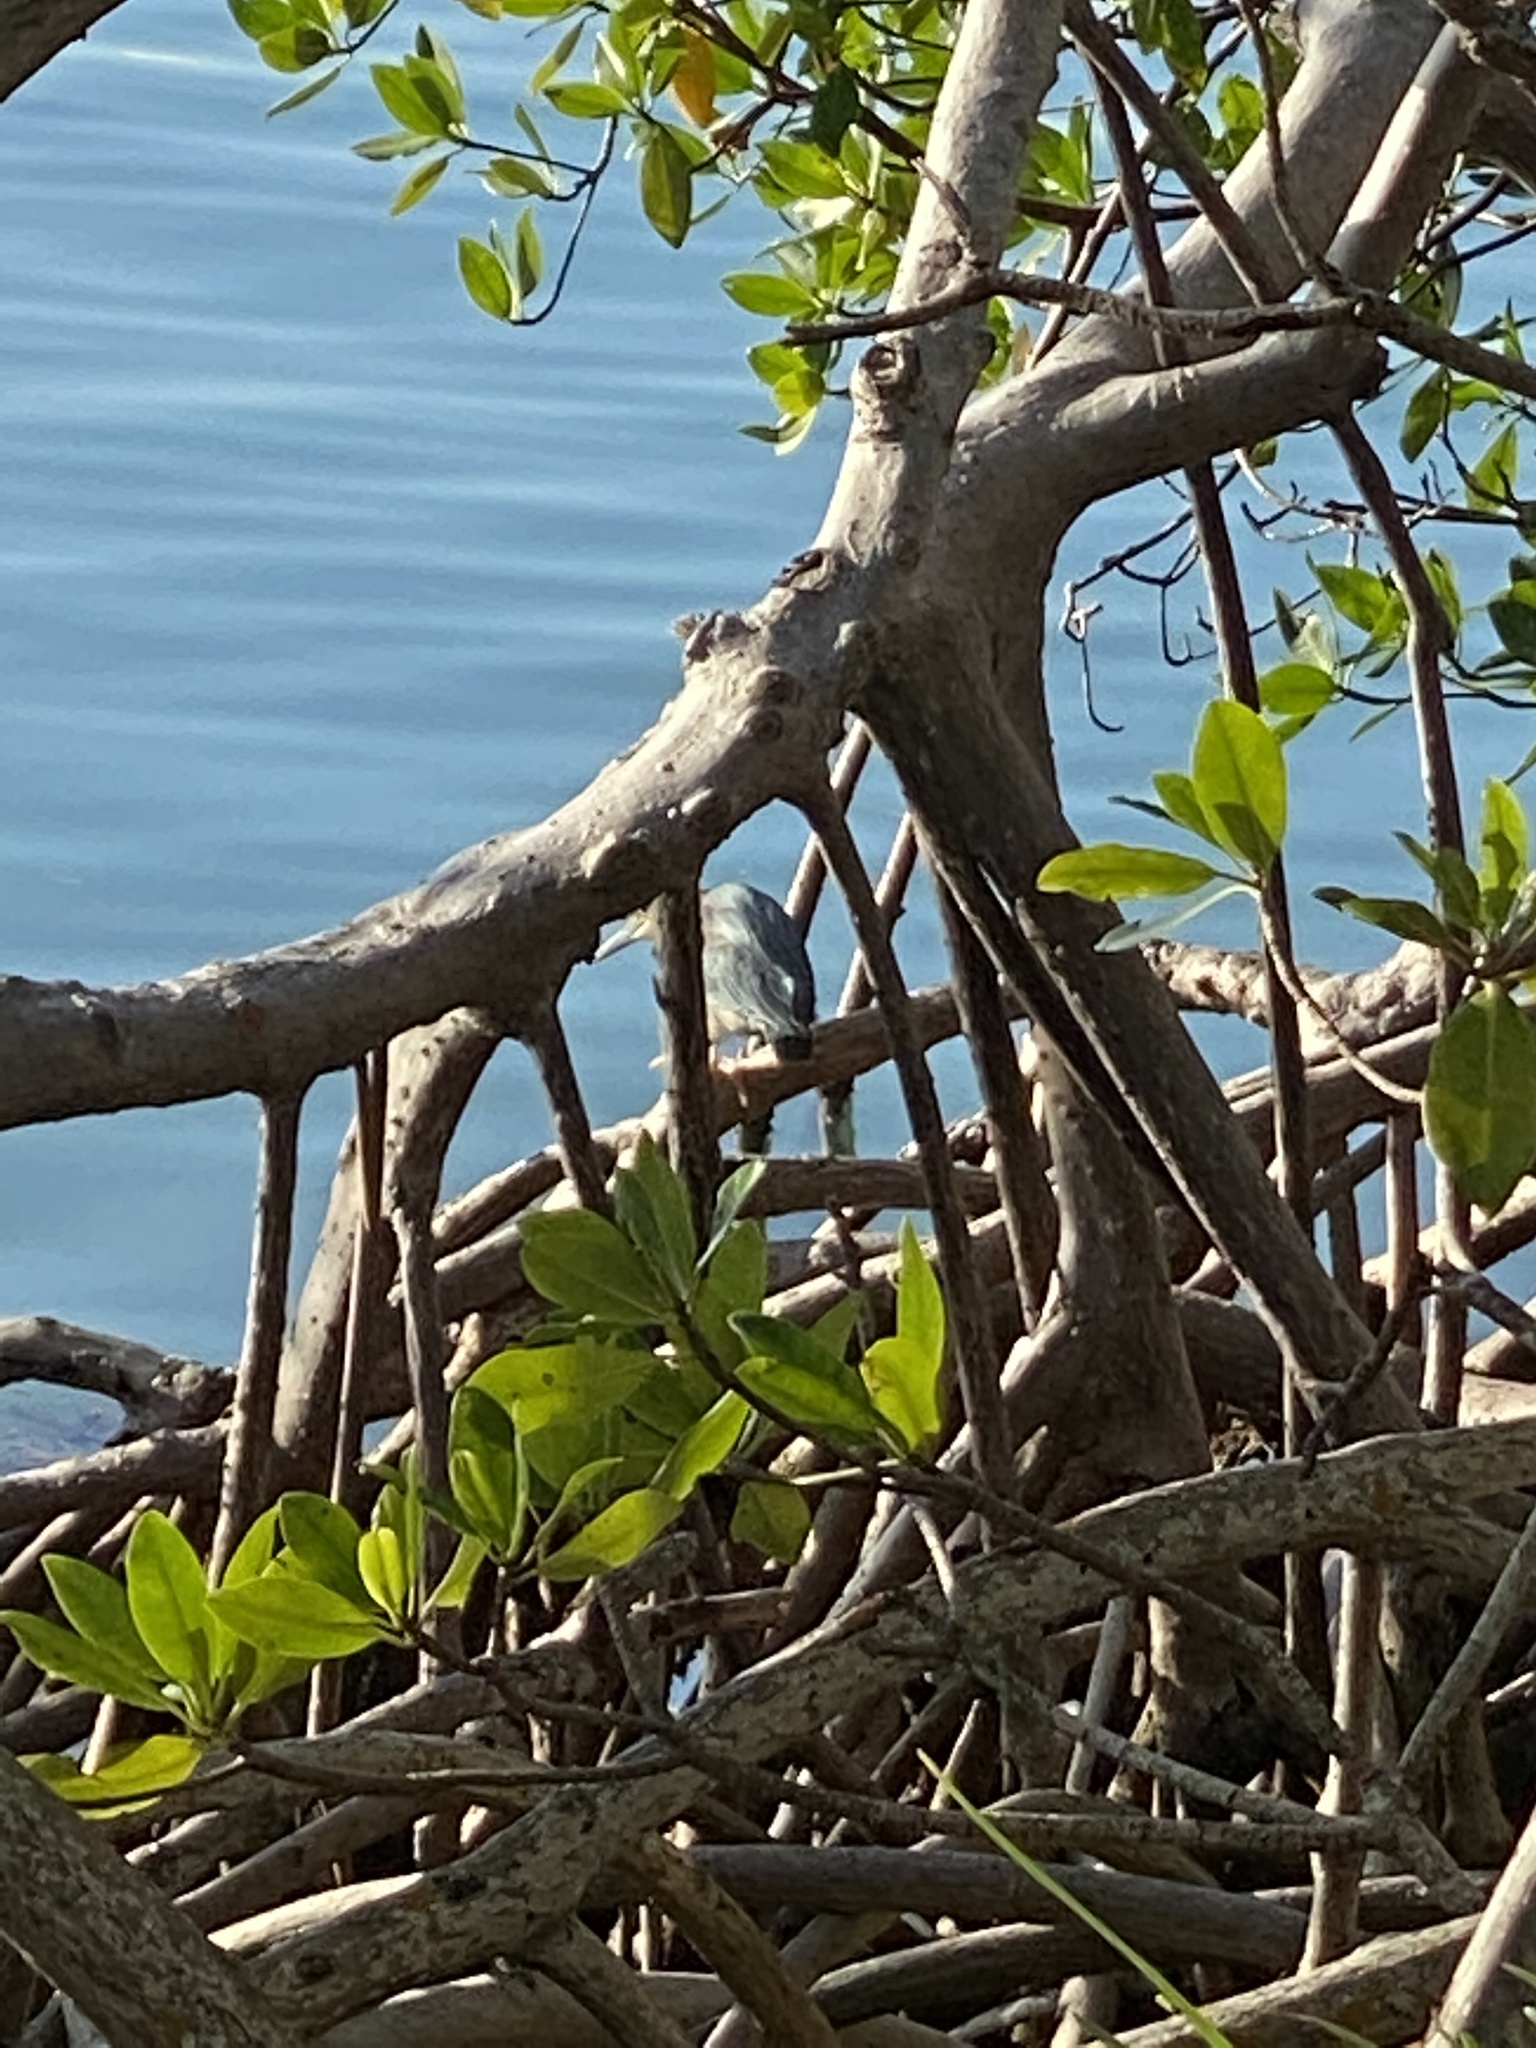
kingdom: Animalia
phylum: Chordata
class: Aves
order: Pelecaniformes
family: Ardeidae
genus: Butorides
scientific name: Butorides virescens
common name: Green heron
